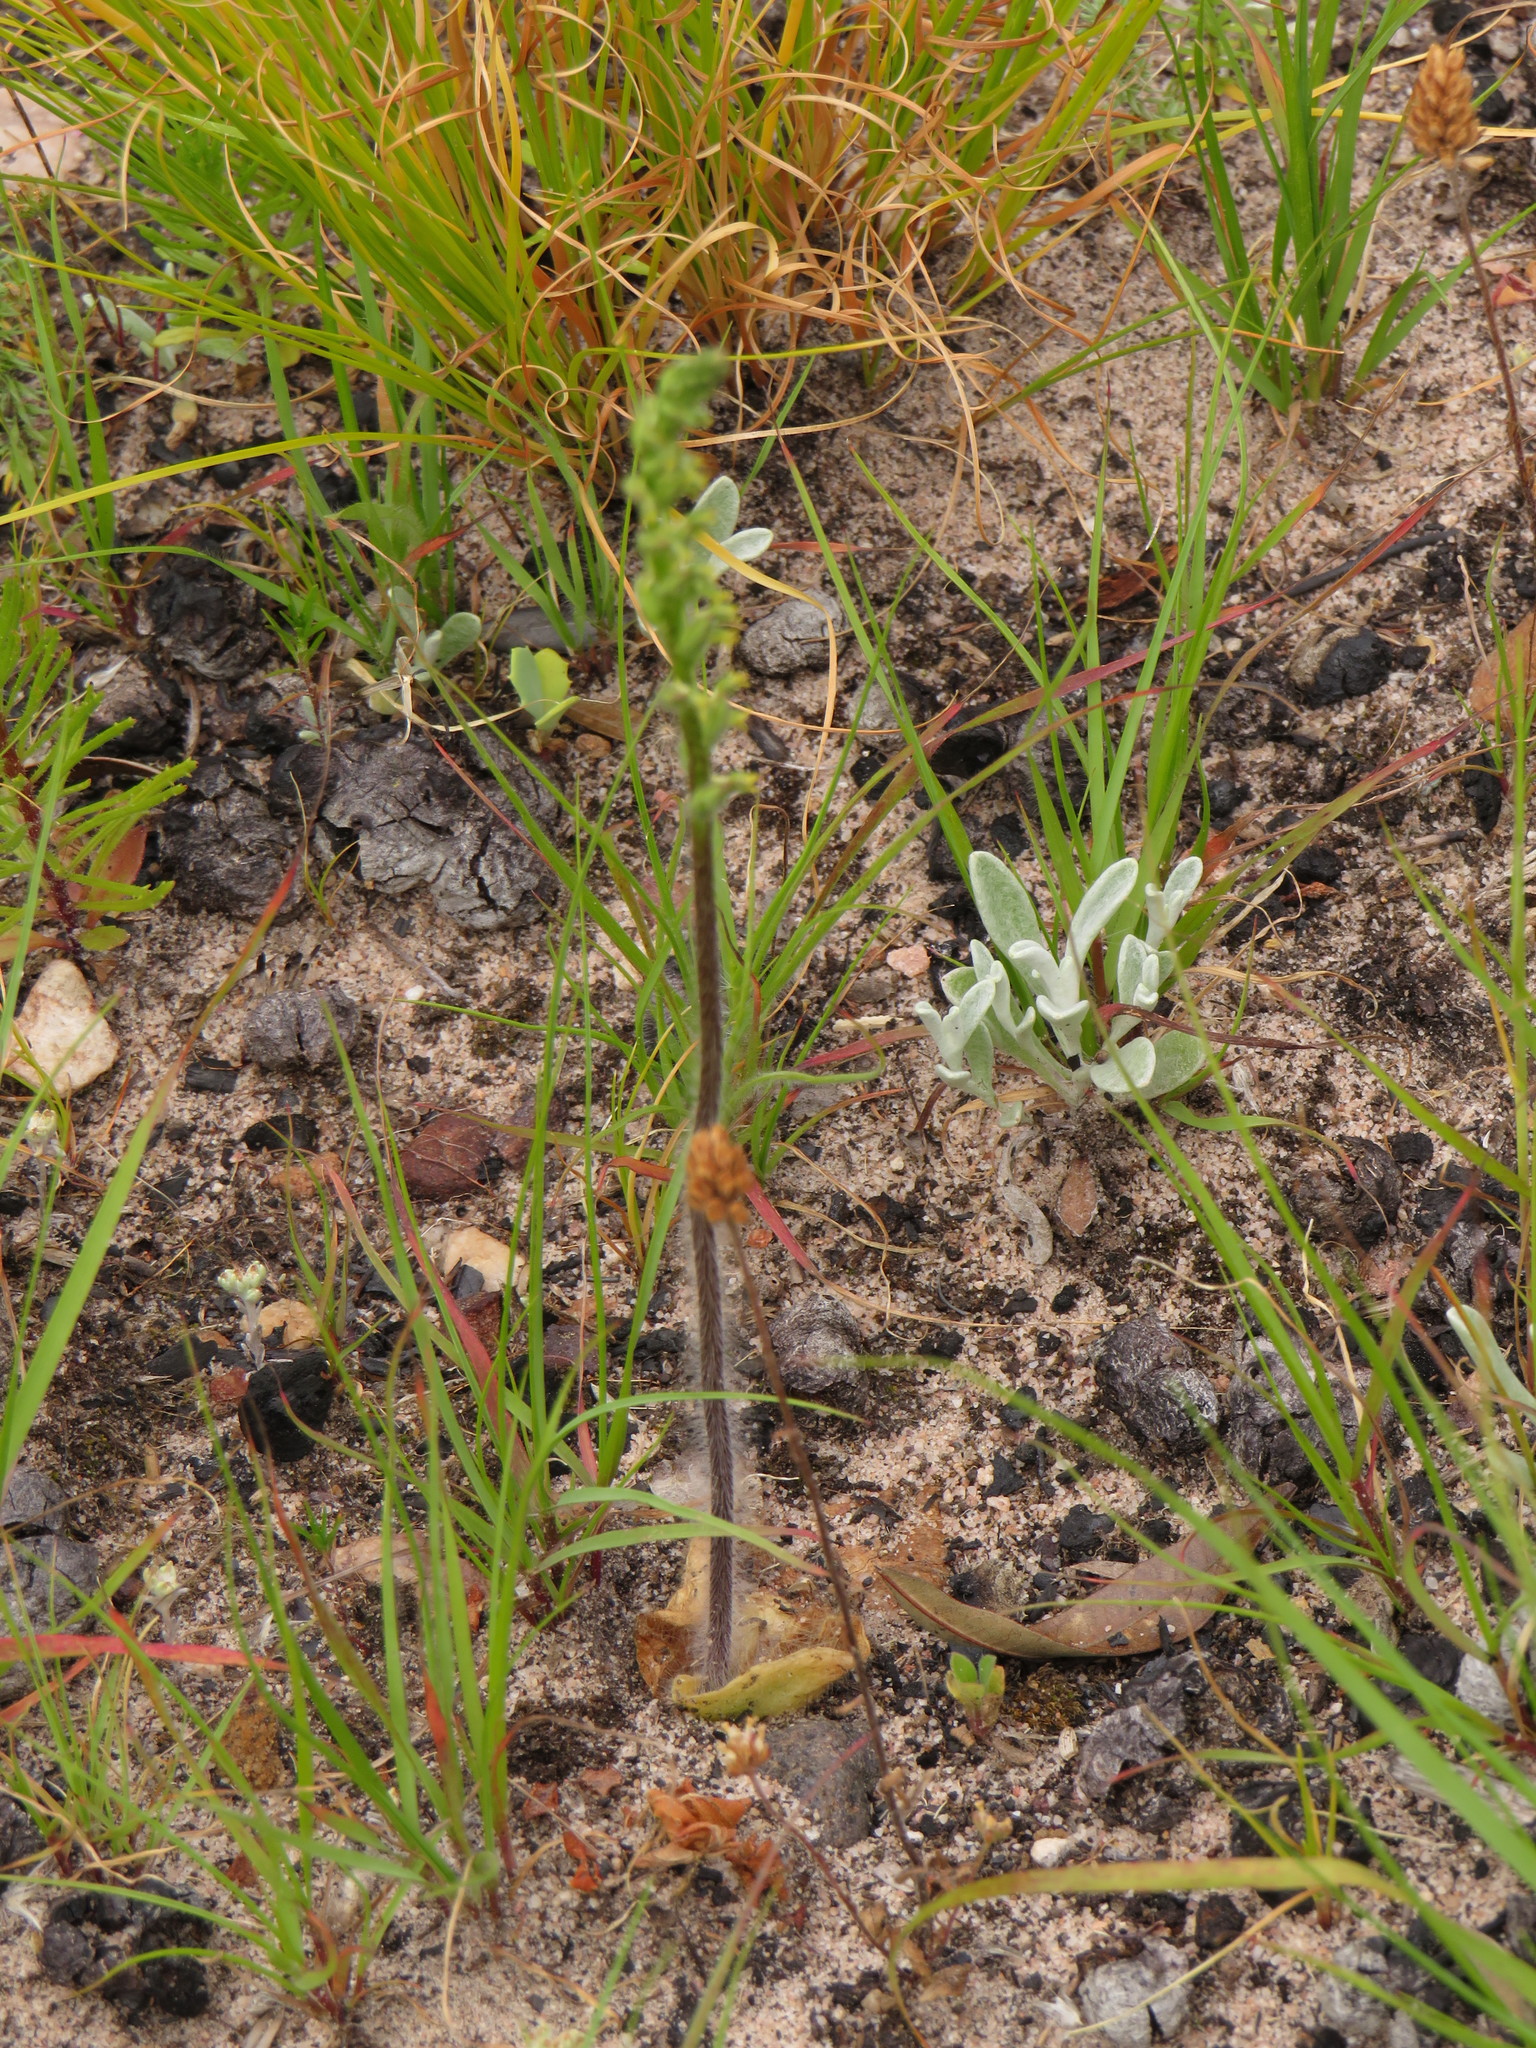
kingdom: Plantae
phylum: Tracheophyta
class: Liliopsida
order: Asparagales
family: Orchidaceae
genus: Holothrix
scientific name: Holothrix villosa
